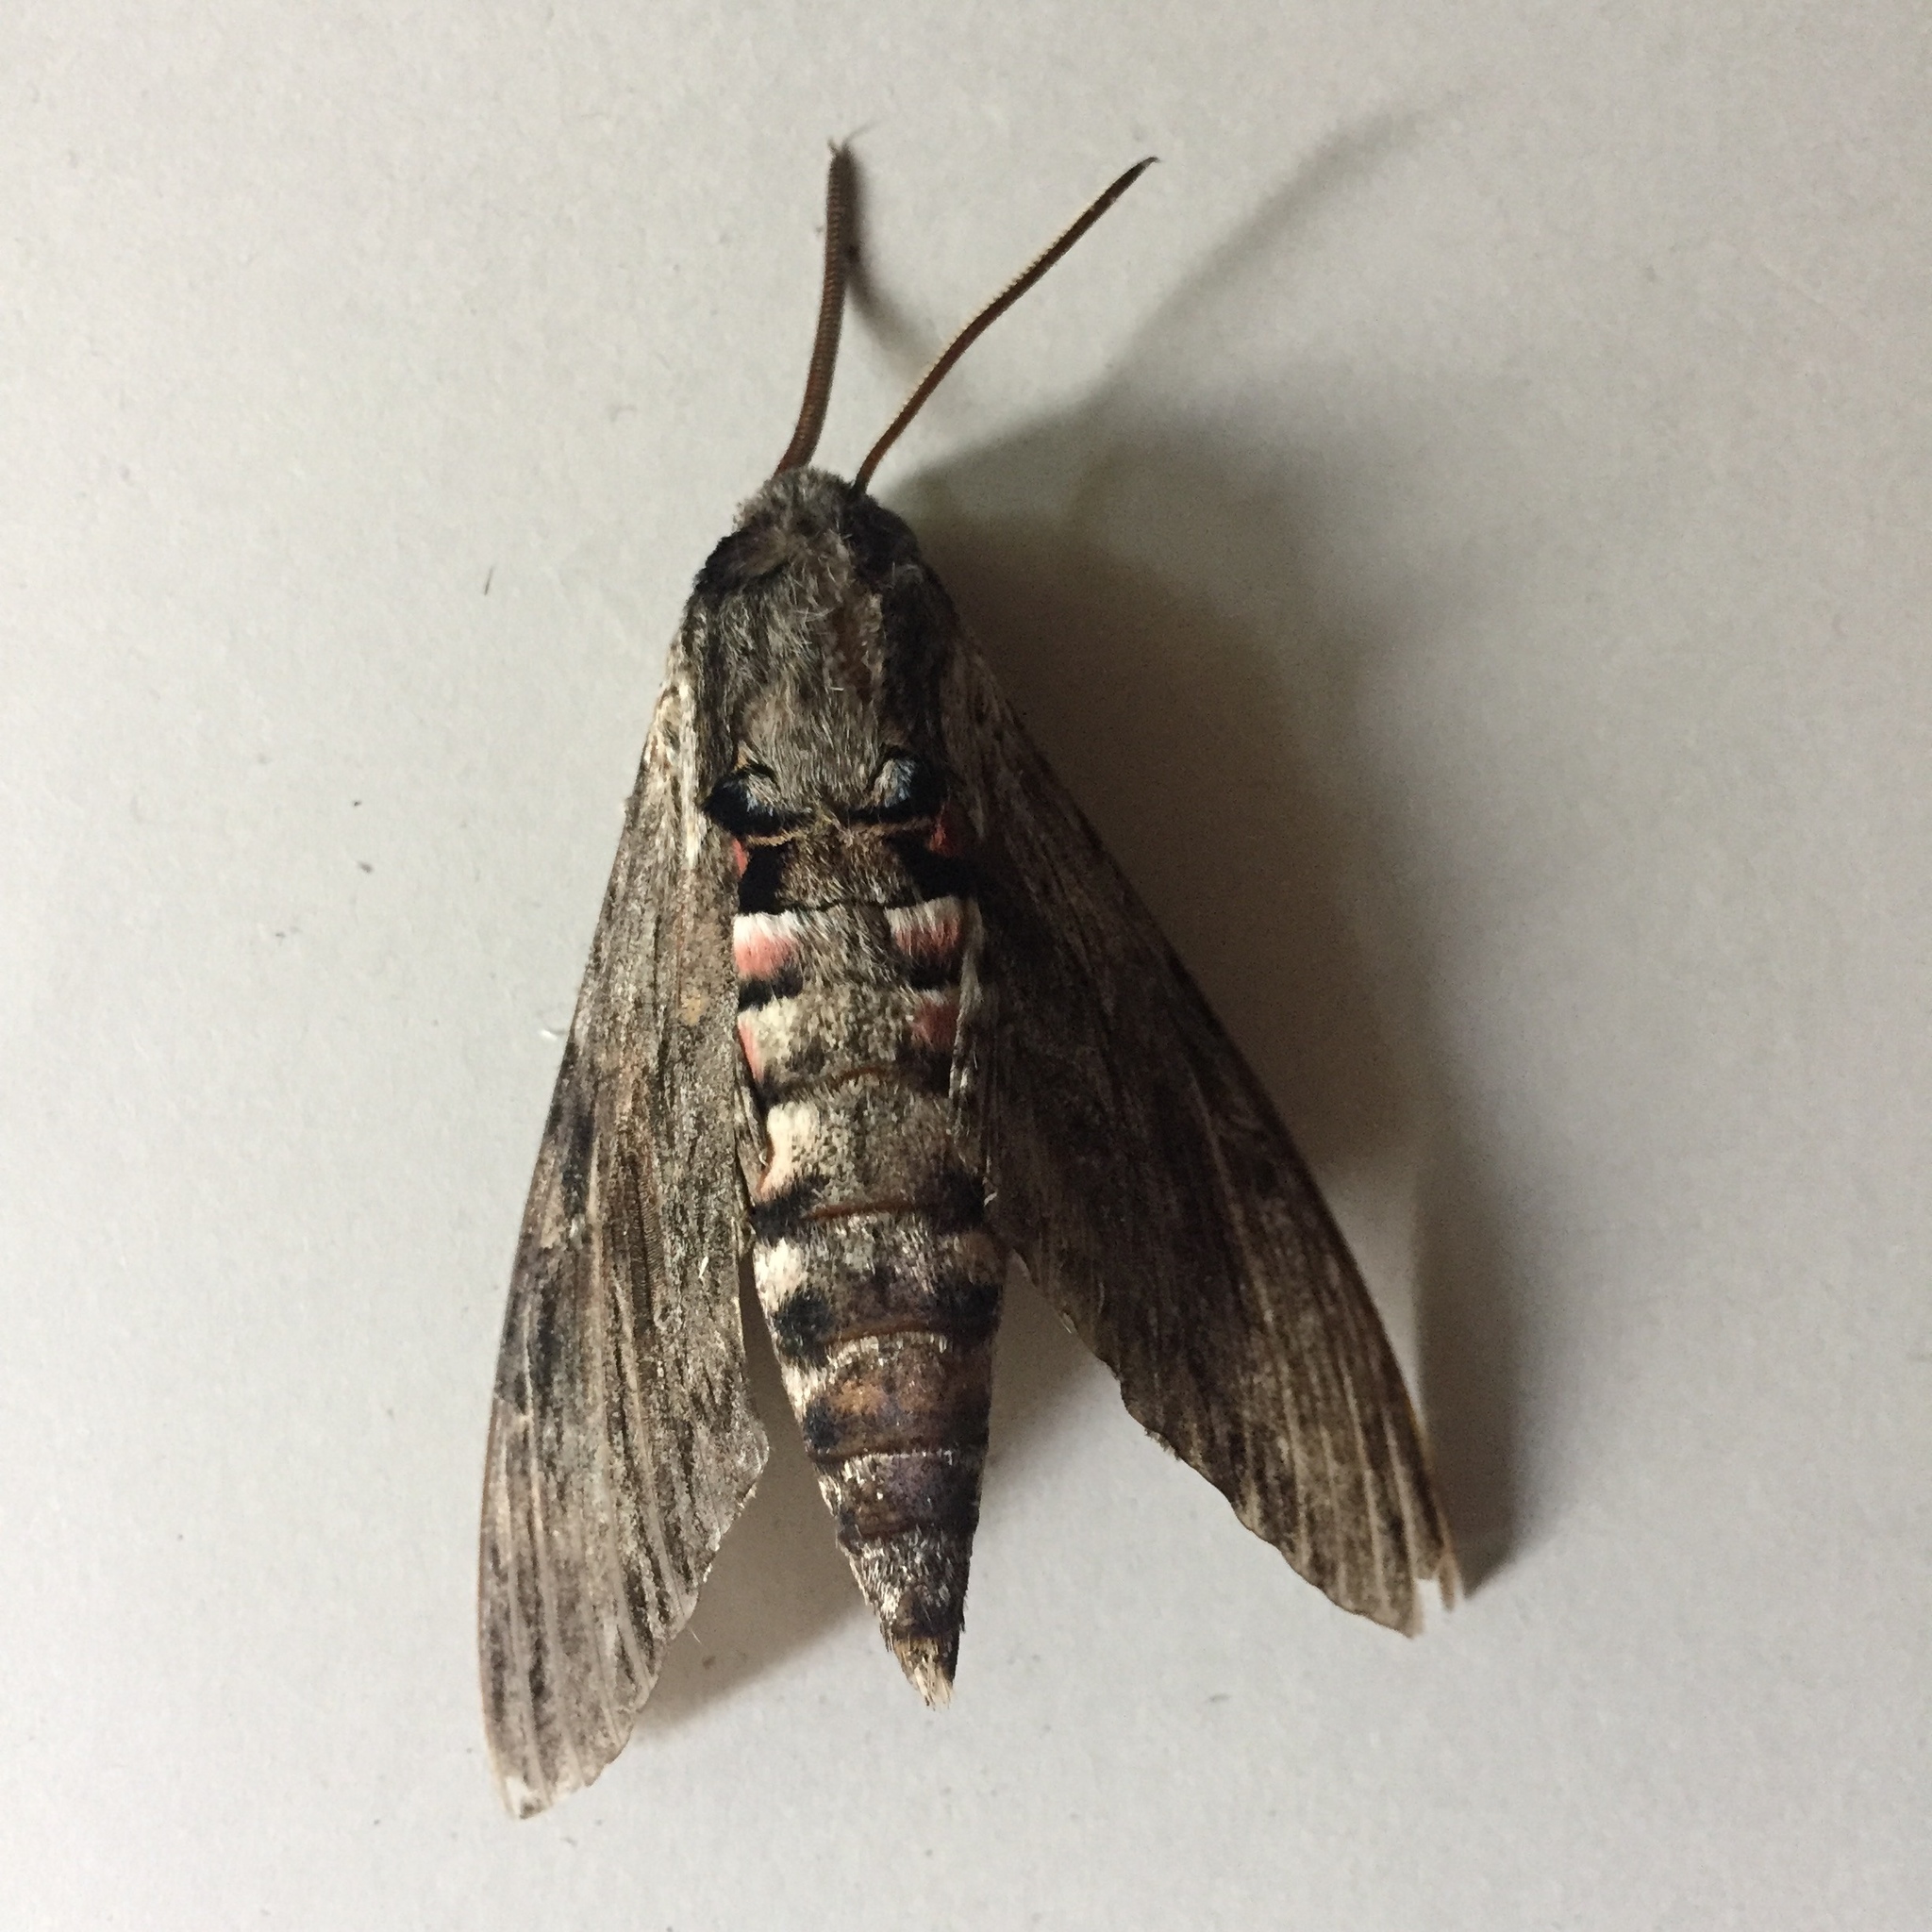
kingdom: Animalia
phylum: Arthropoda
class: Insecta
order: Lepidoptera
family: Sphingidae
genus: Agrius
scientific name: Agrius convolvuli
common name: Convolvulus hawkmoth
